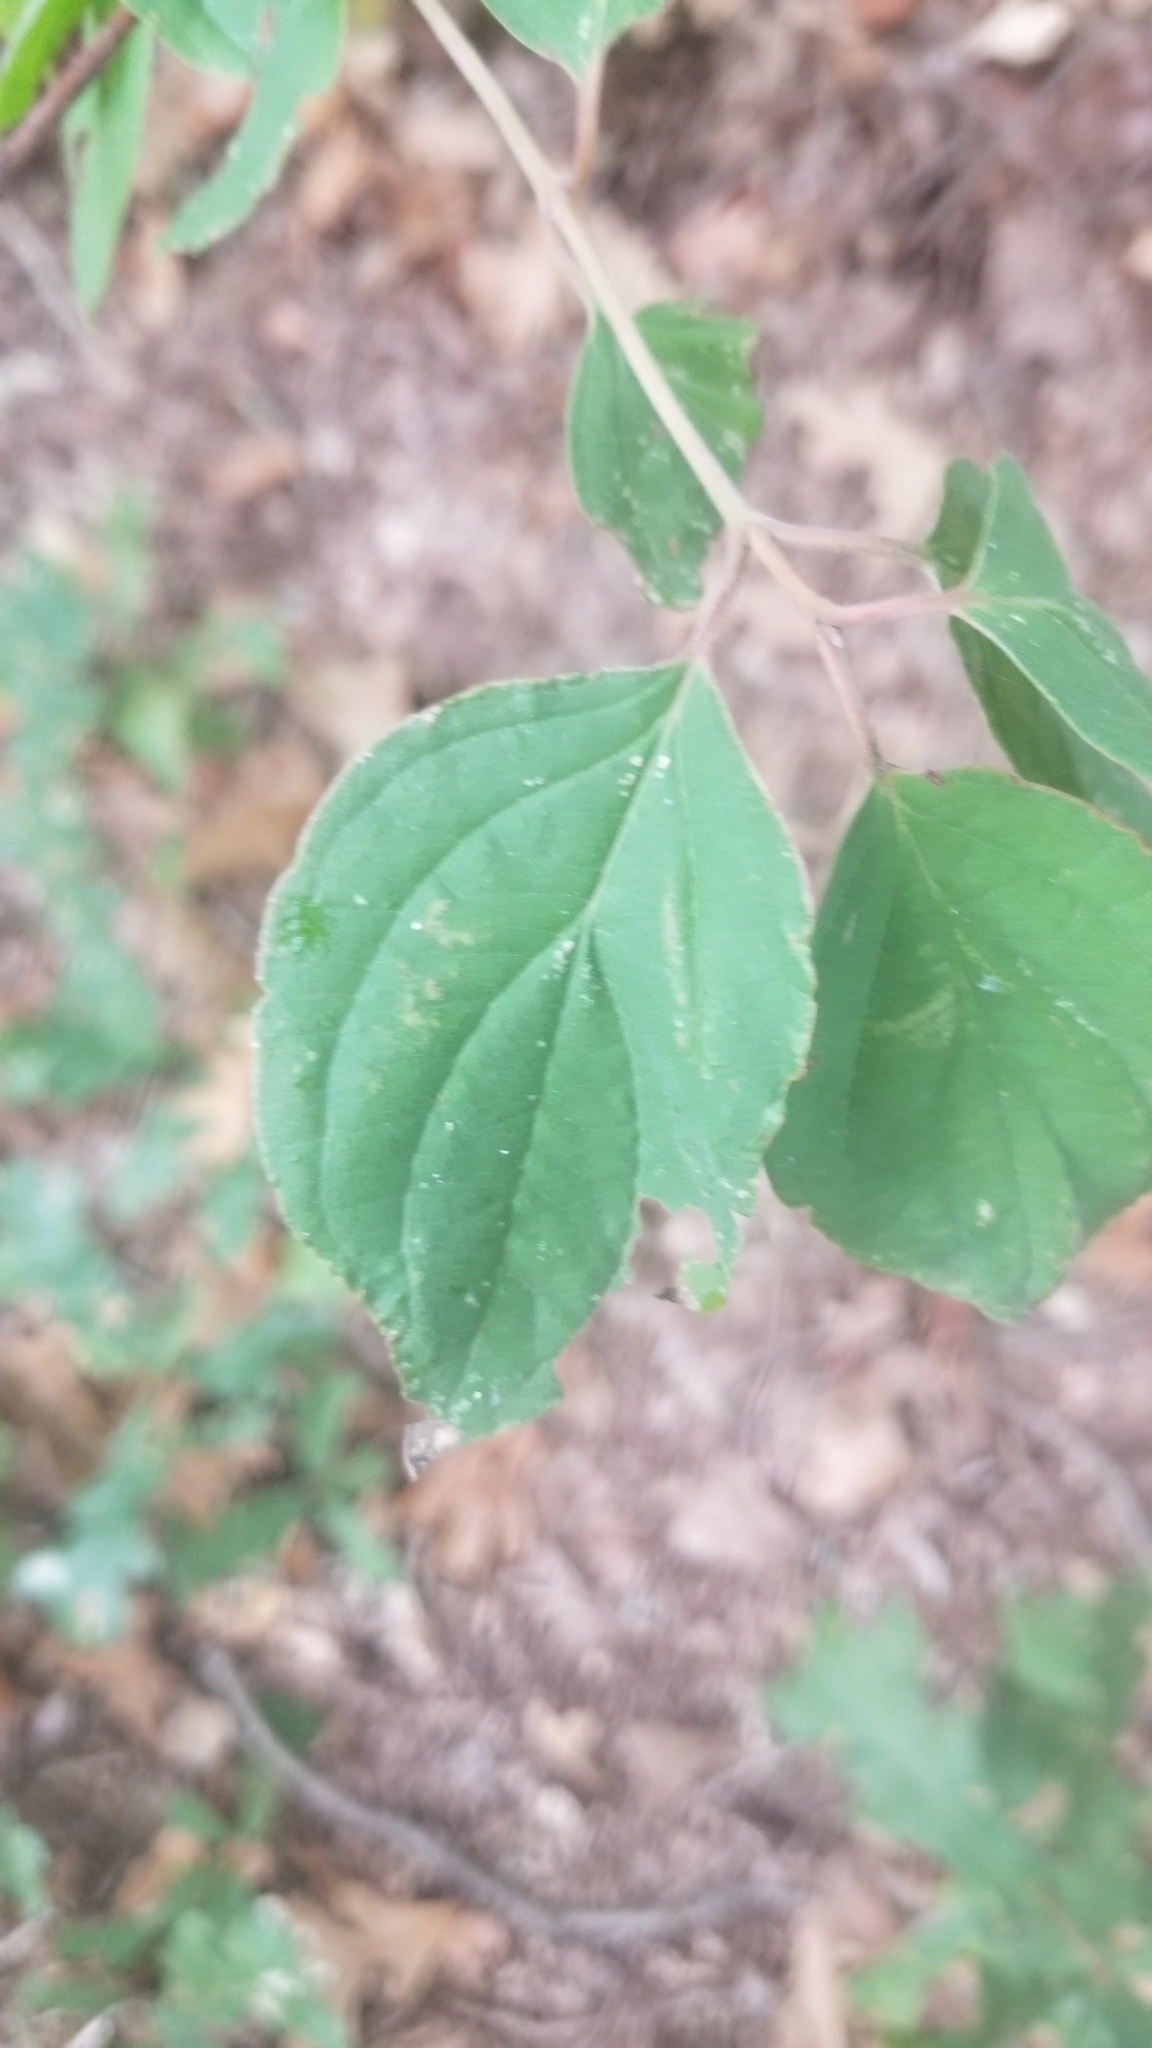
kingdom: Plantae
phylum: Tracheophyta
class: Magnoliopsida
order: Cornales
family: Cornaceae
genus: Cornus
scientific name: Cornus drummondii
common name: Rough-leaf dogwood
